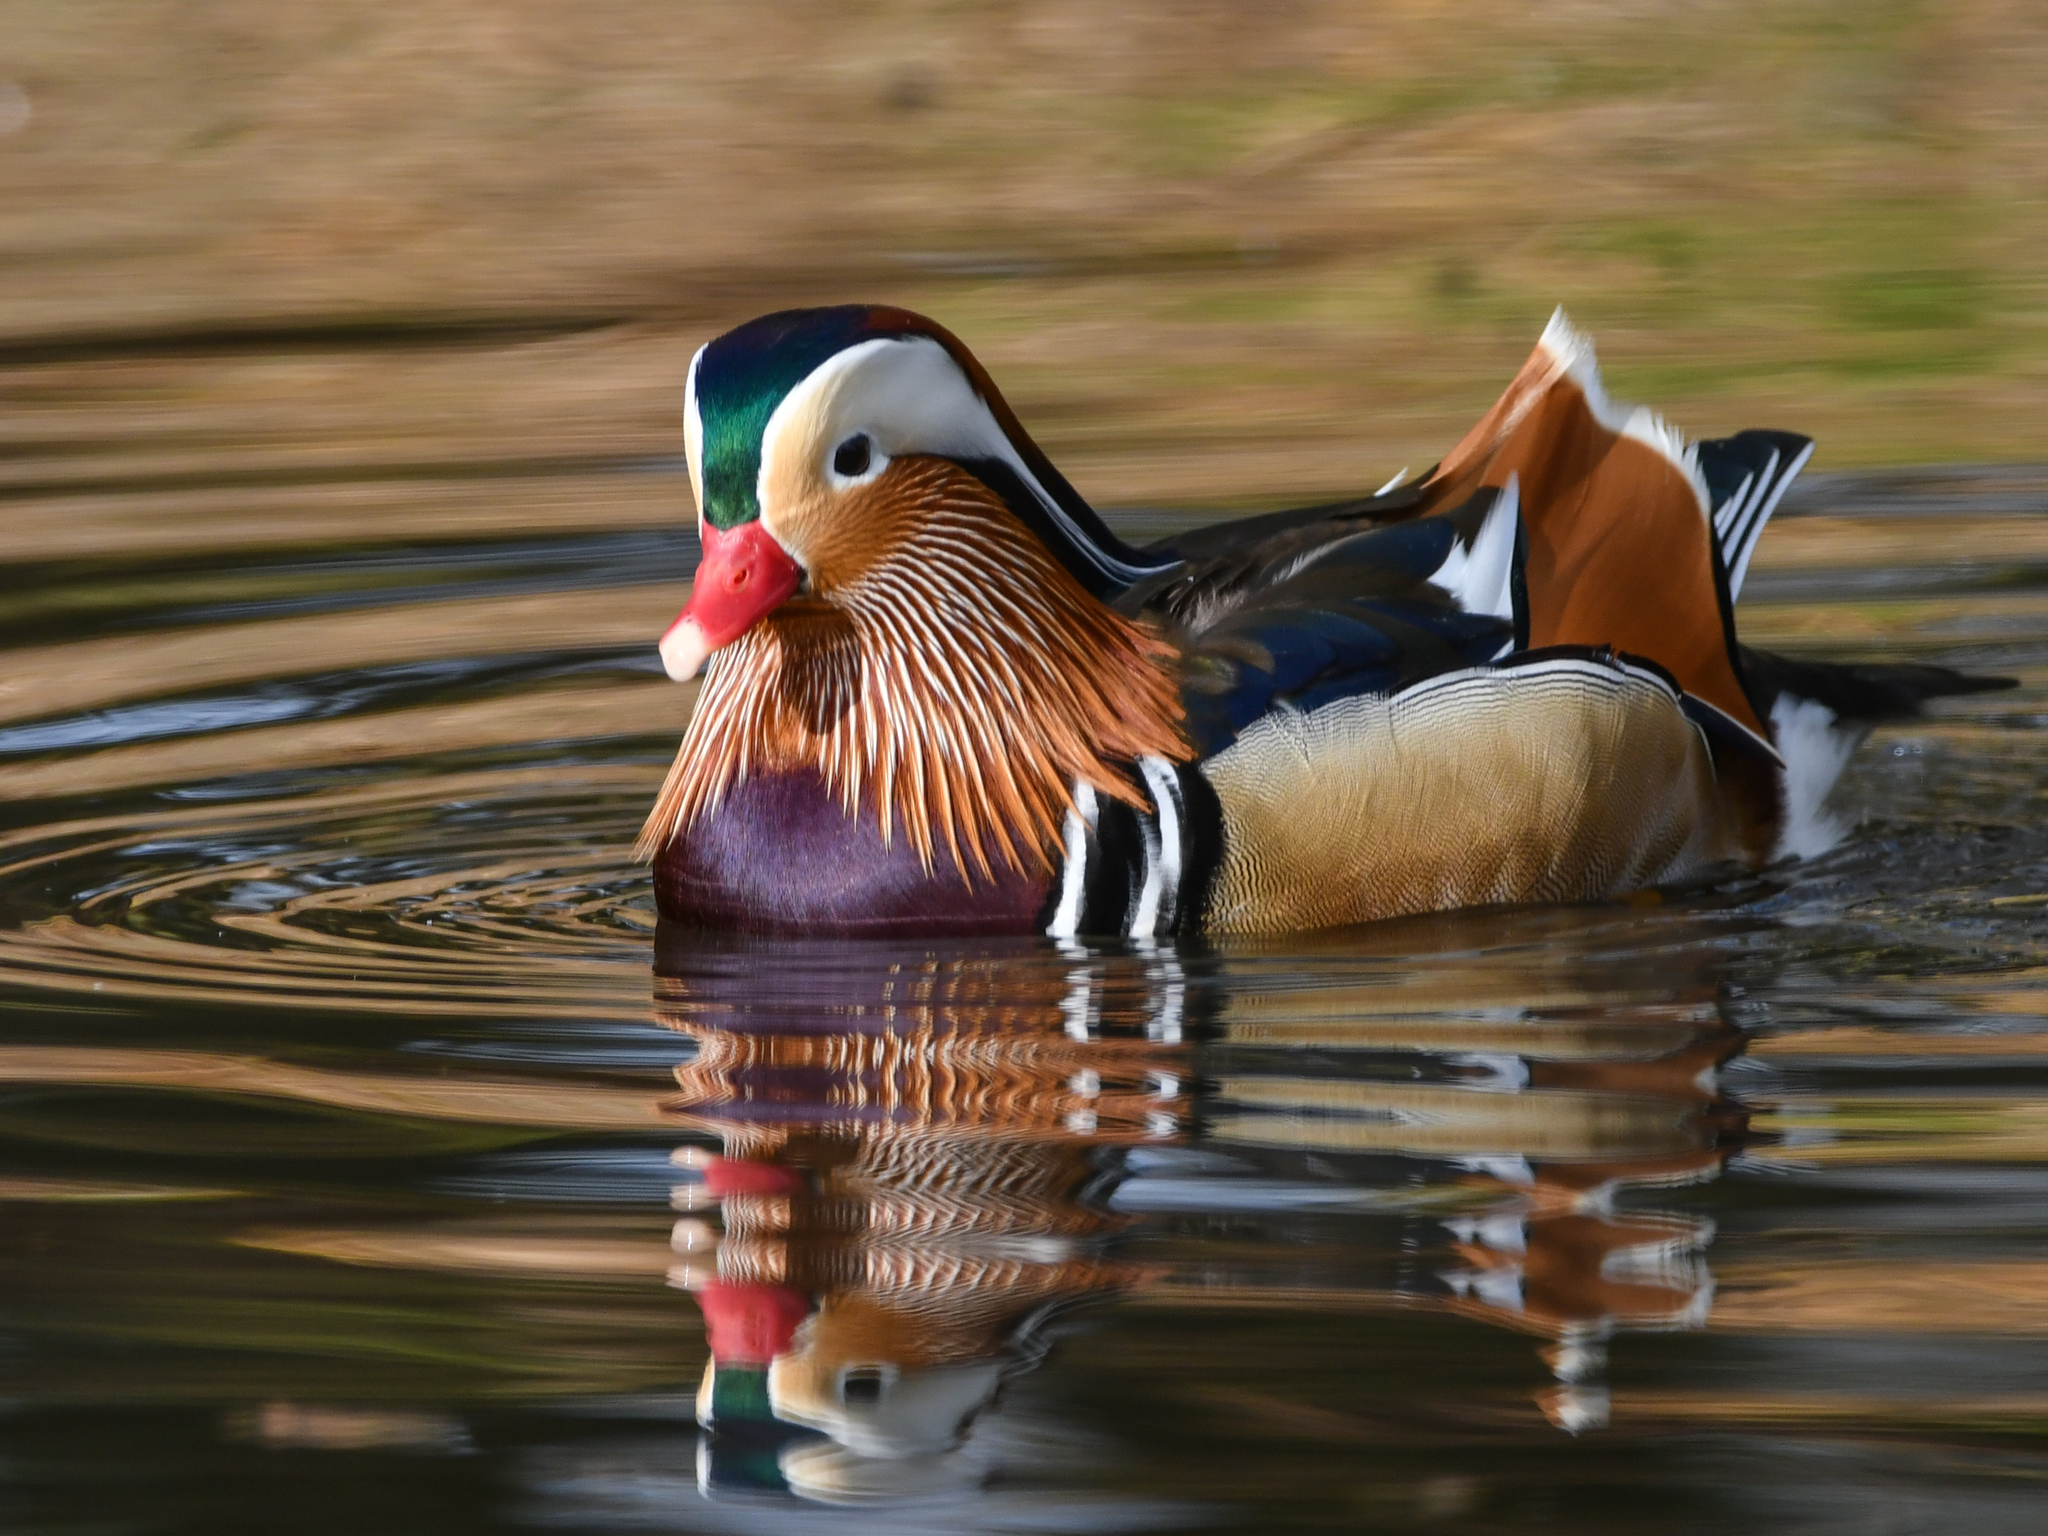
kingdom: Animalia
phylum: Chordata
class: Aves
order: Anseriformes
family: Anatidae
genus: Aix
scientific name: Aix galericulata
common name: Mandarin duck
